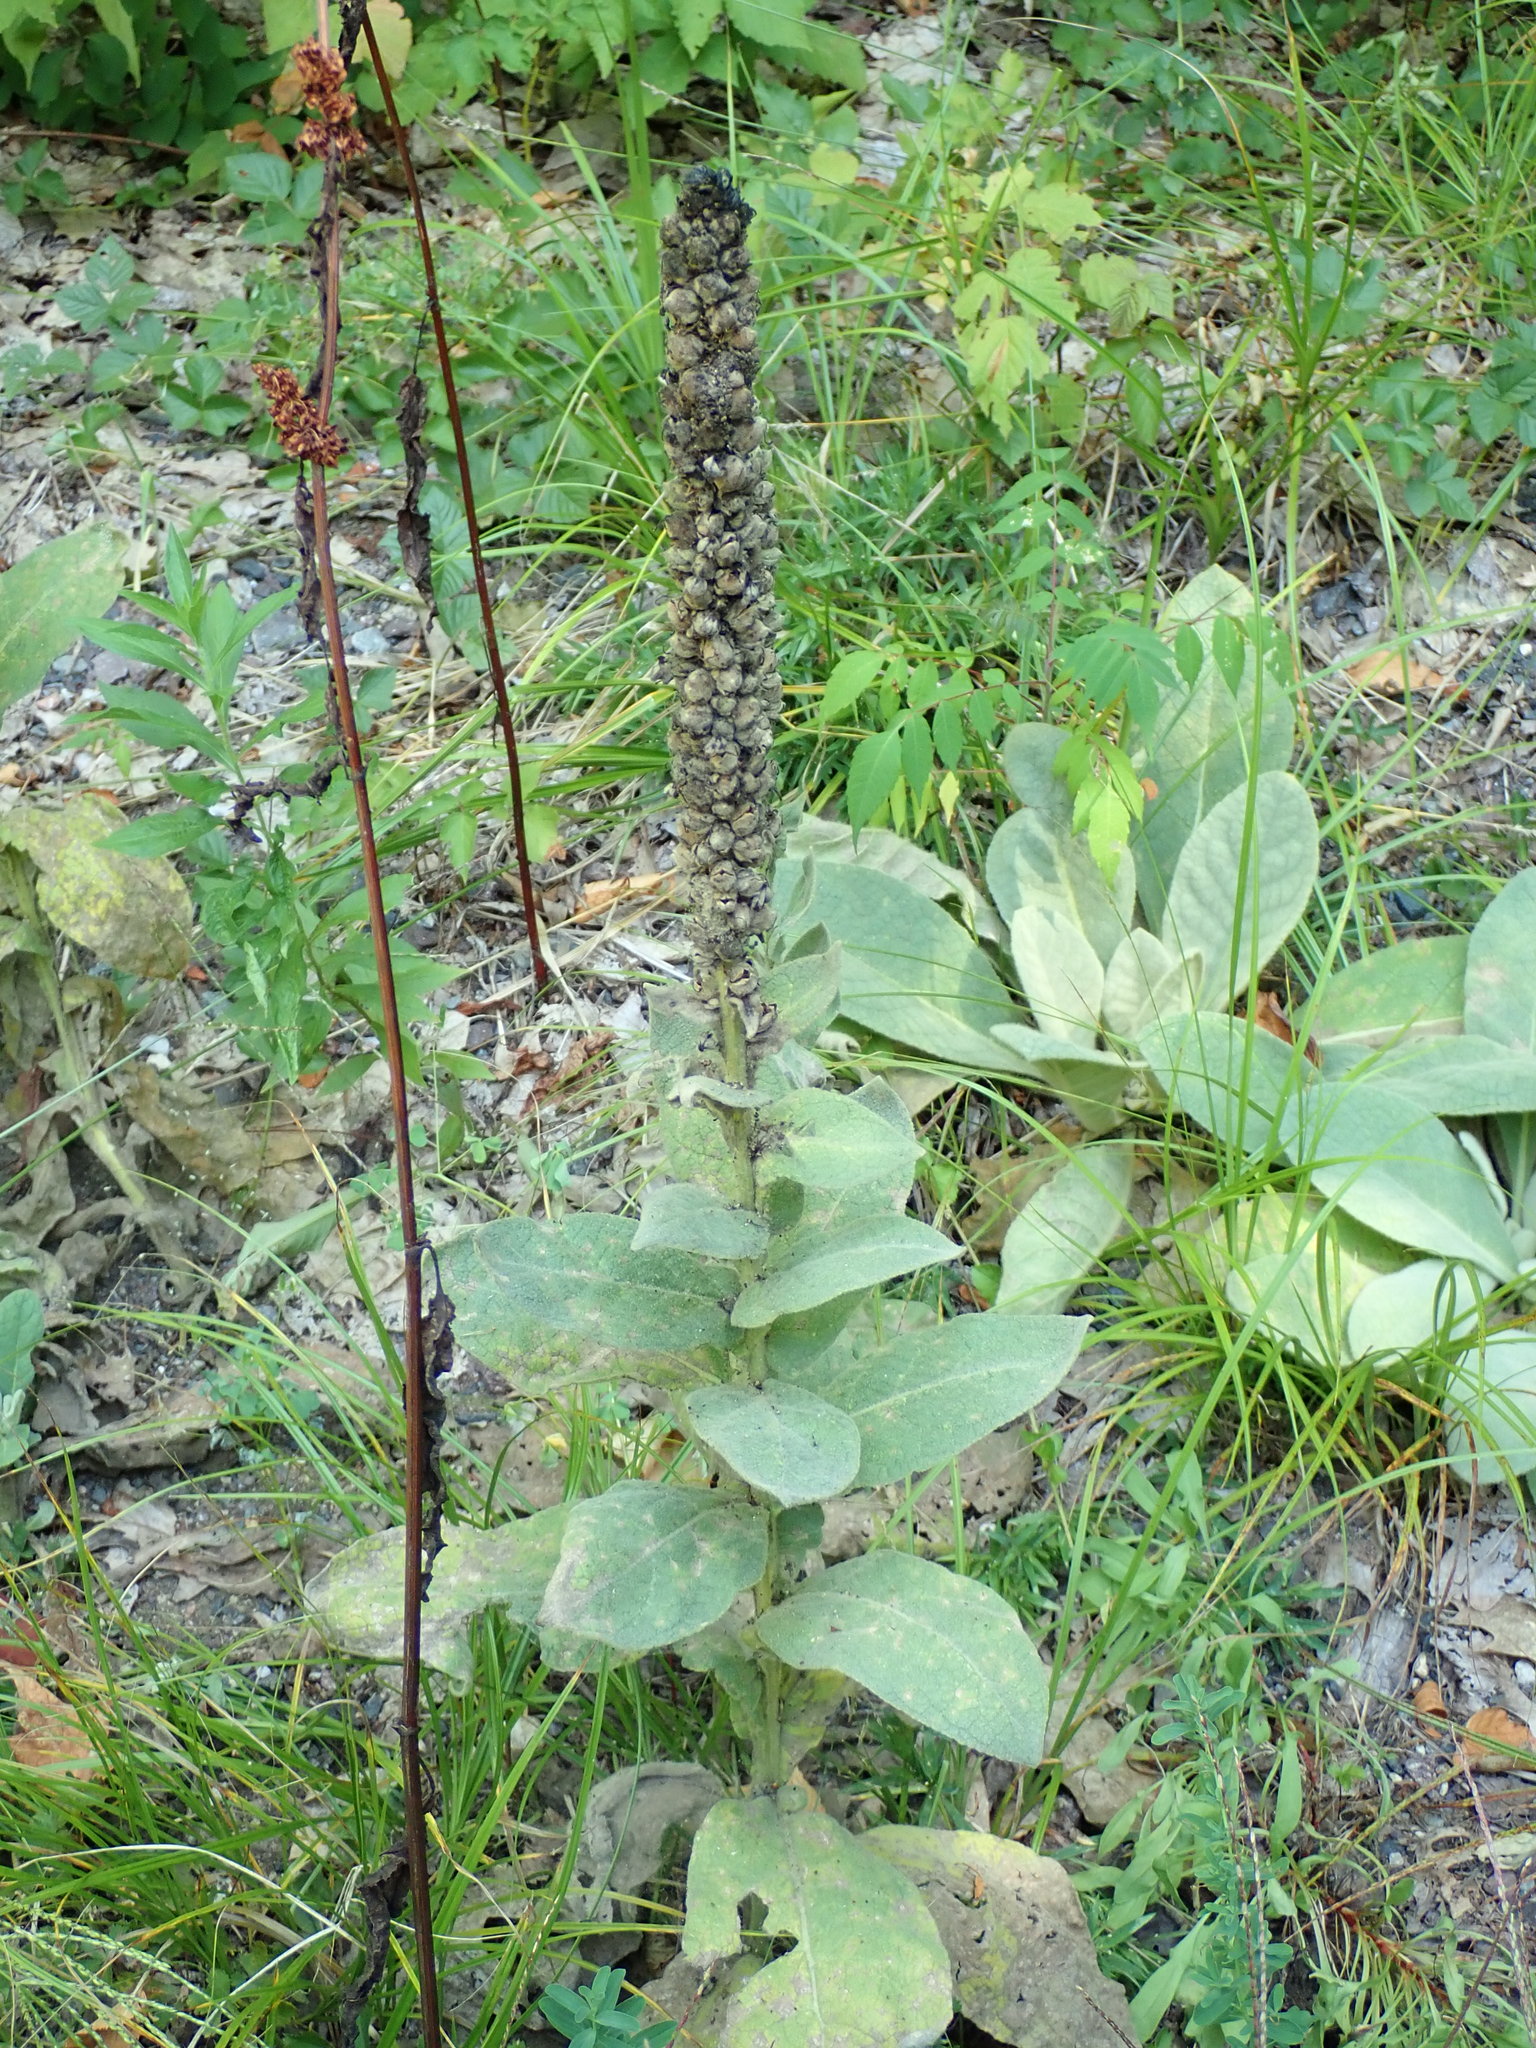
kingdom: Plantae
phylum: Tracheophyta
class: Magnoliopsida
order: Lamiales
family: Scrophulariaceae
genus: Verbascum
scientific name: Verbascum thapsus
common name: Common mullein
